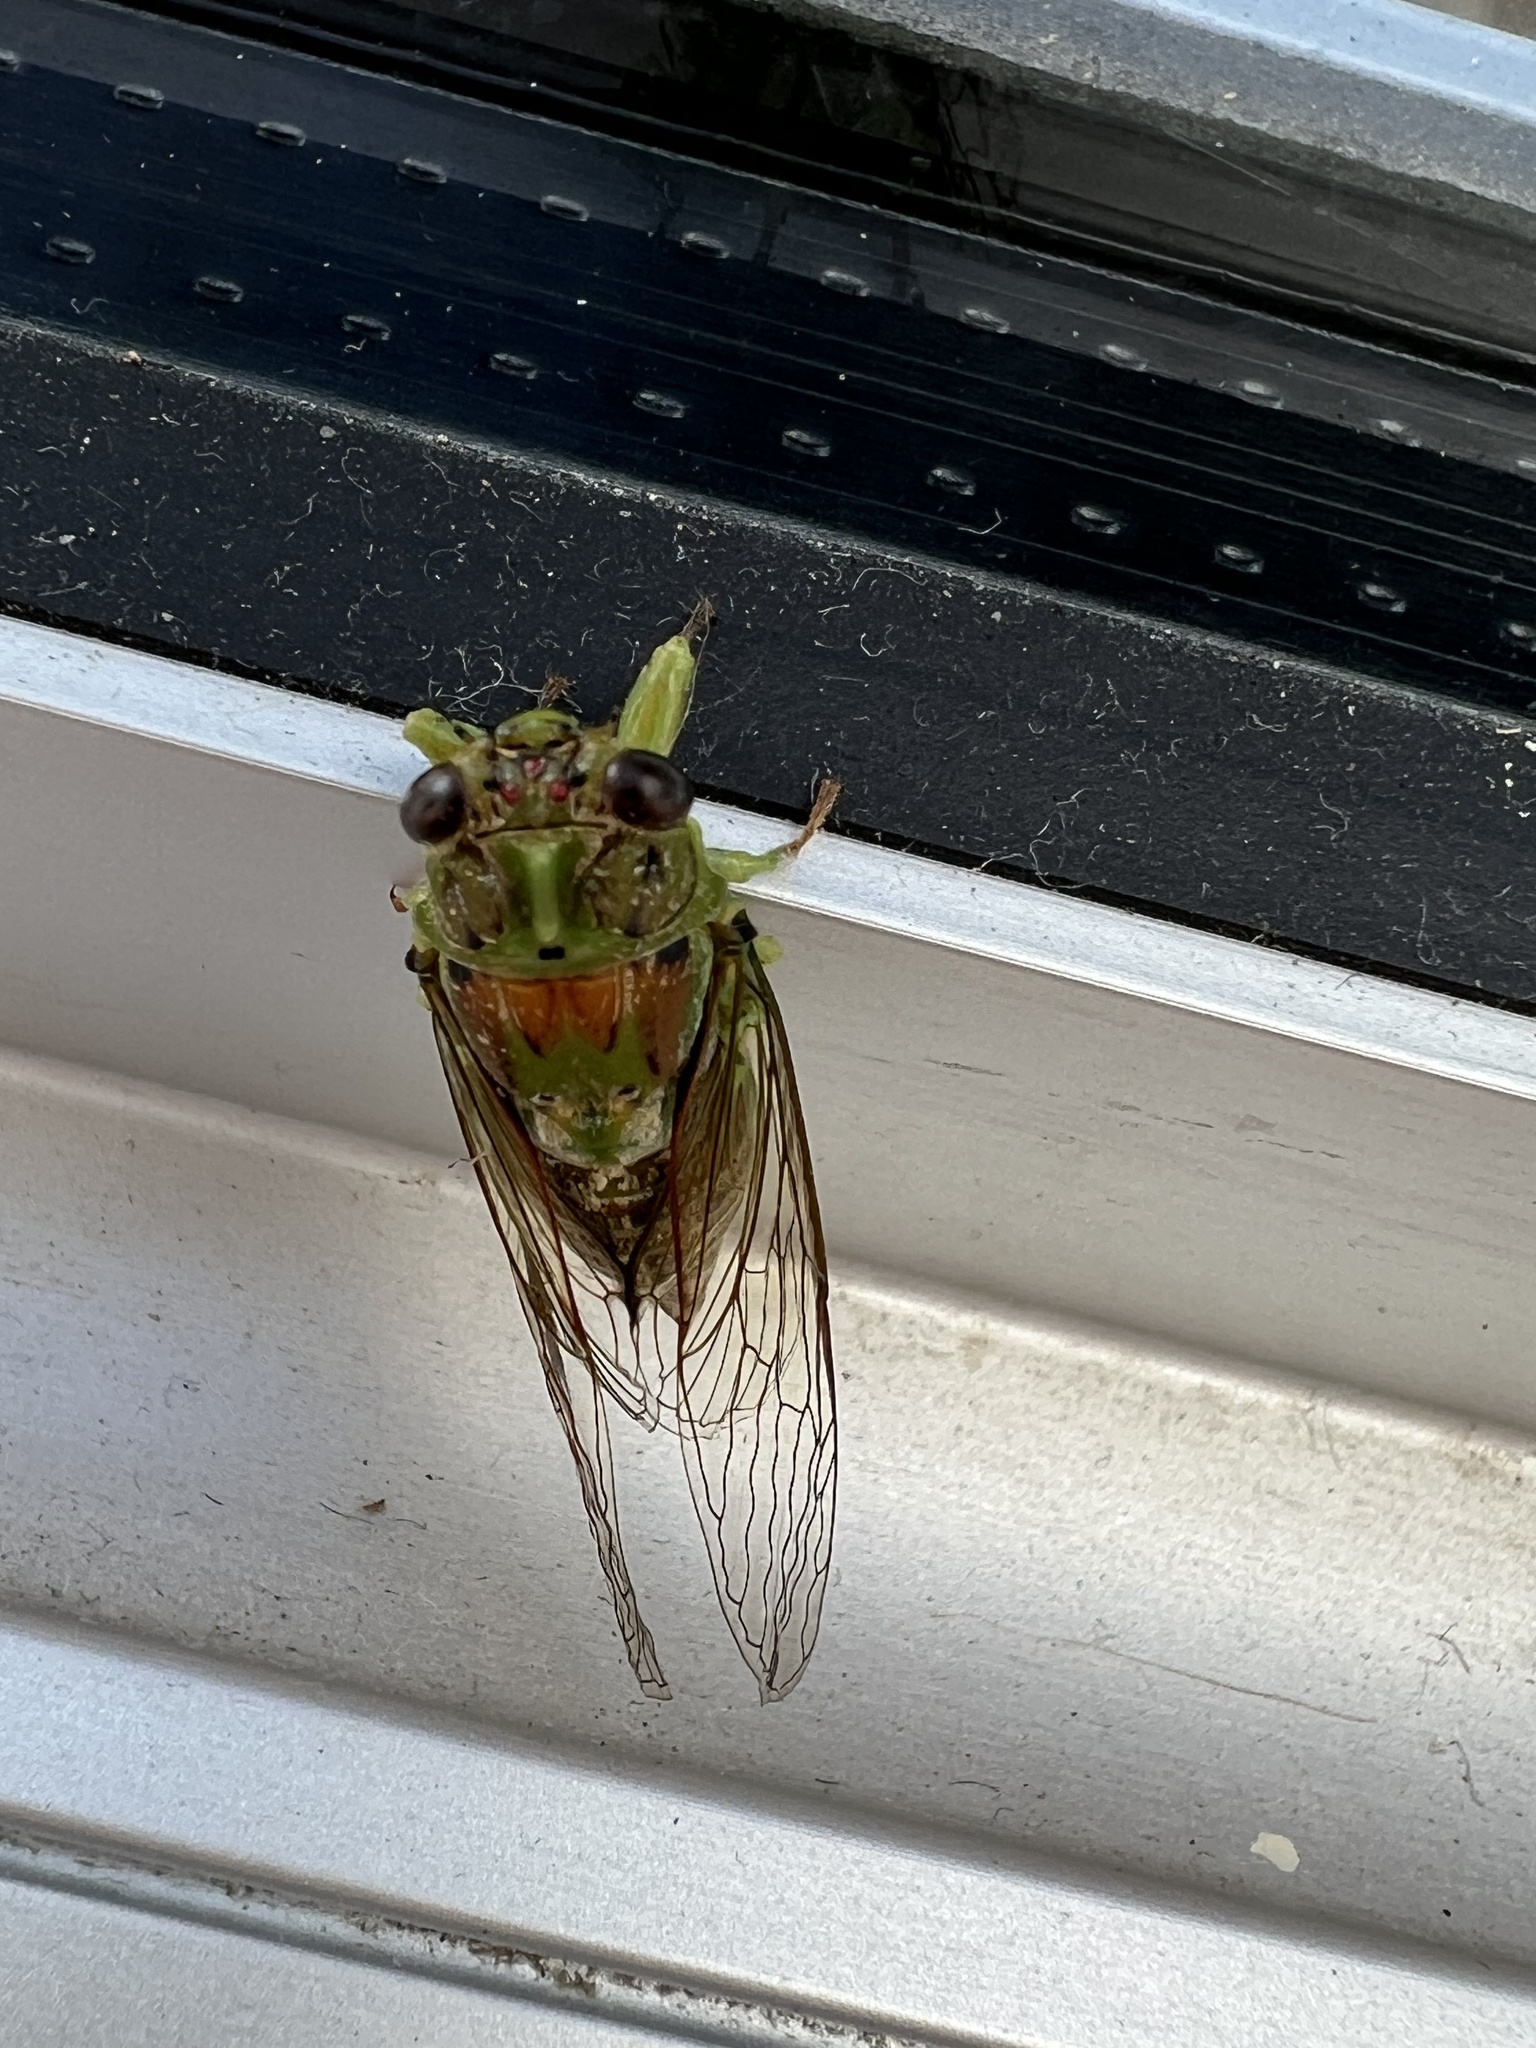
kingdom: Animalia
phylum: Arthropoda
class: Insecta
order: Hemiptera
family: Cicadidae
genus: Kikihia
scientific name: Kikihia scutellaris
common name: Lesser bronze cicada
